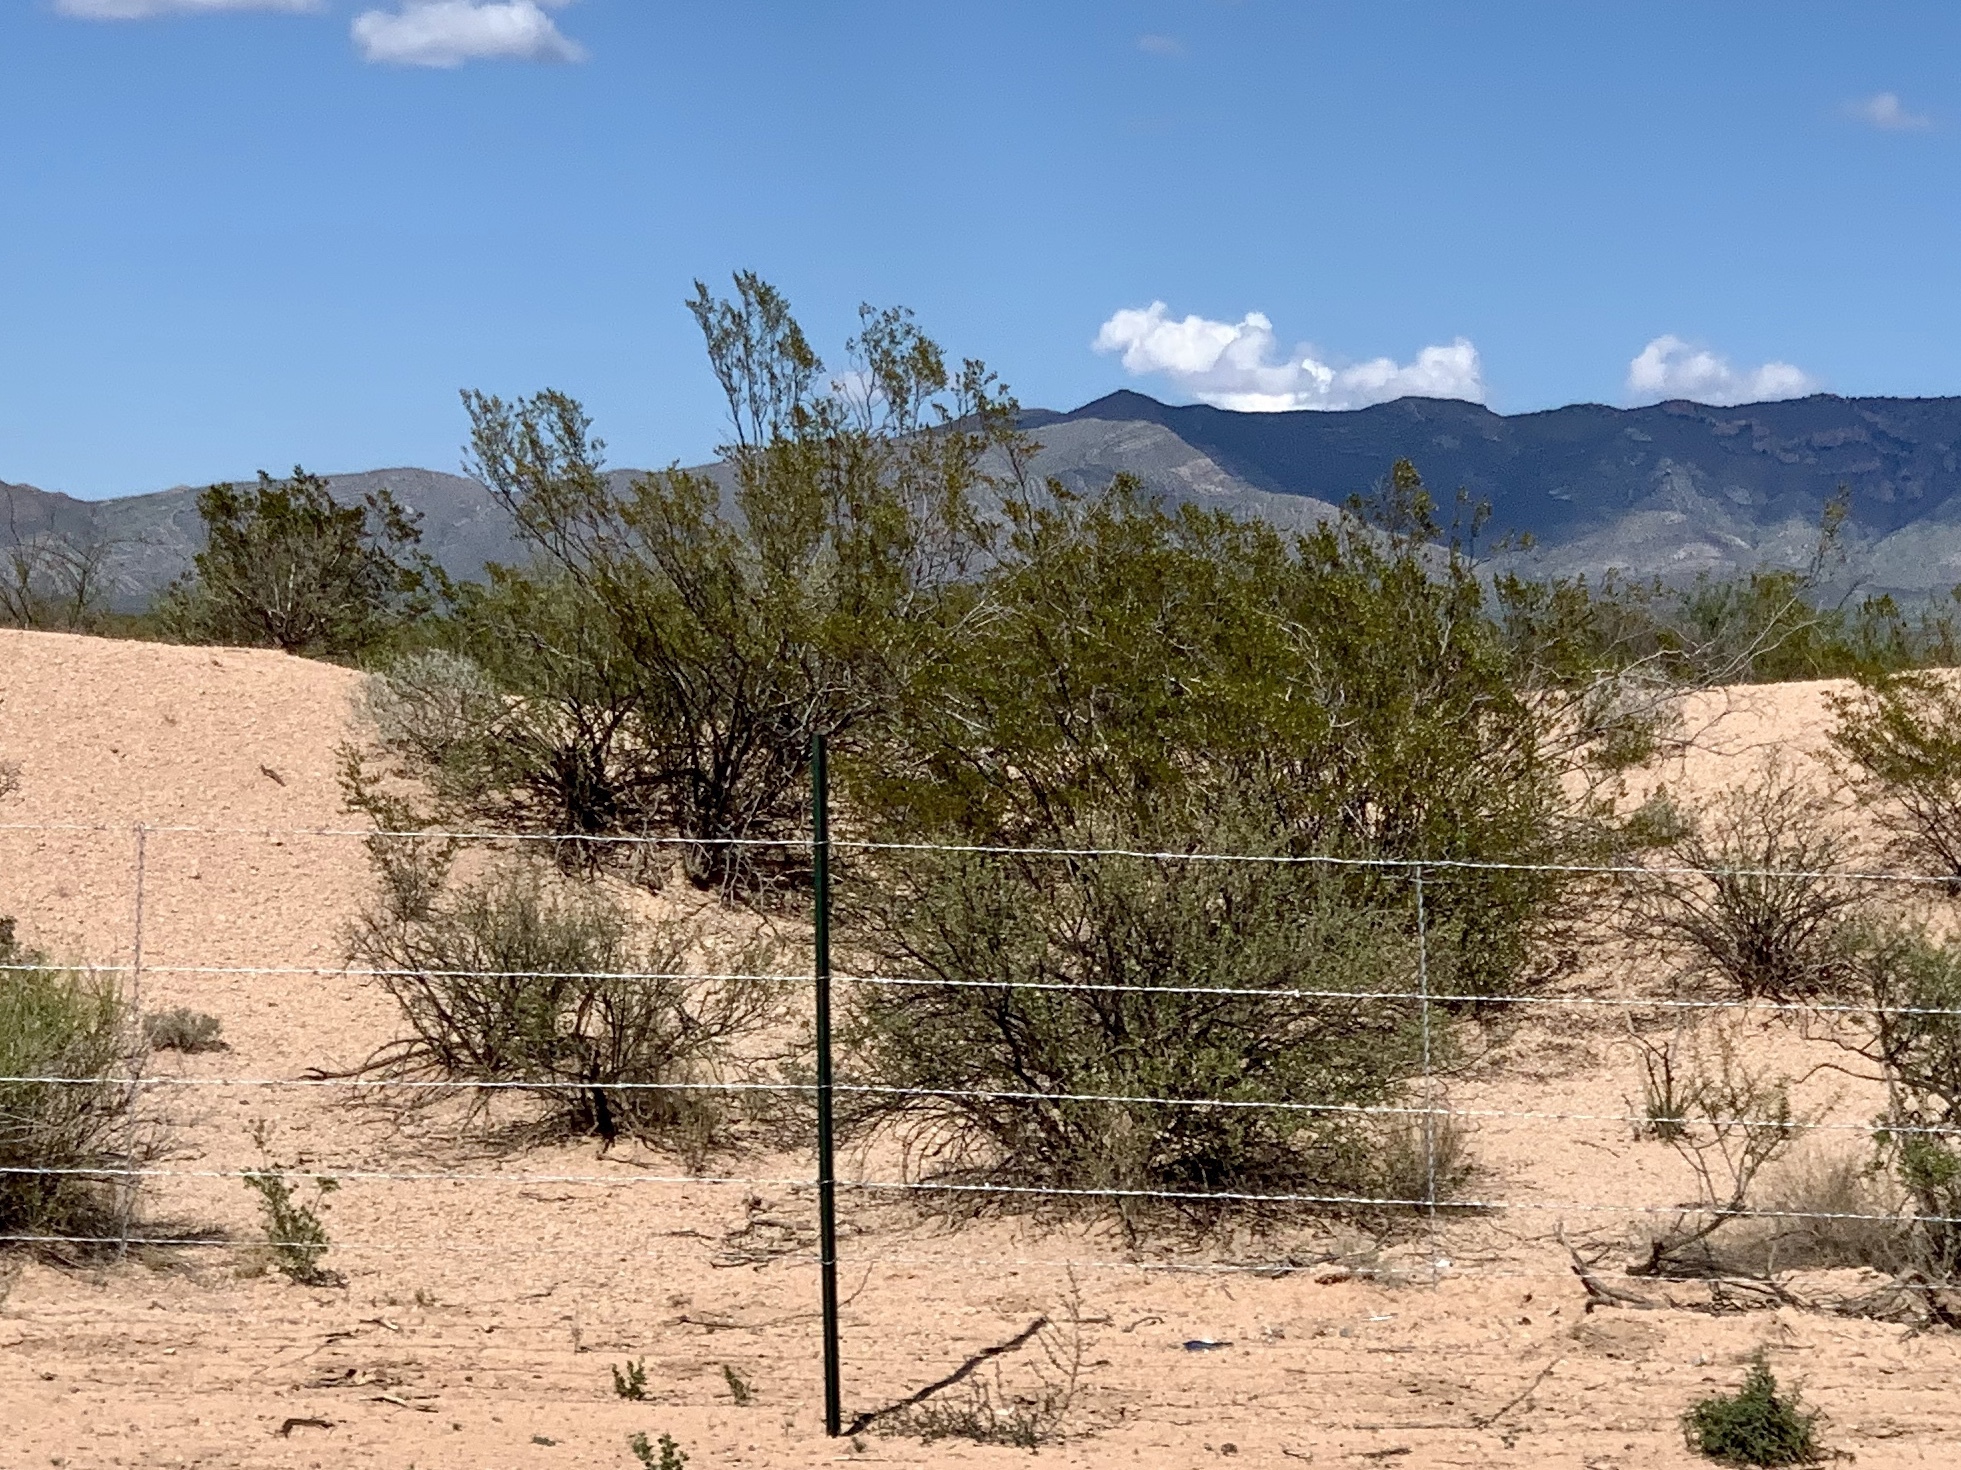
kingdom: Plantae
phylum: Tracheophyta
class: Magnoliopsida
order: Zygophyllales
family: Zygophyllaceae
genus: Larrea
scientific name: Larrea tridentata
